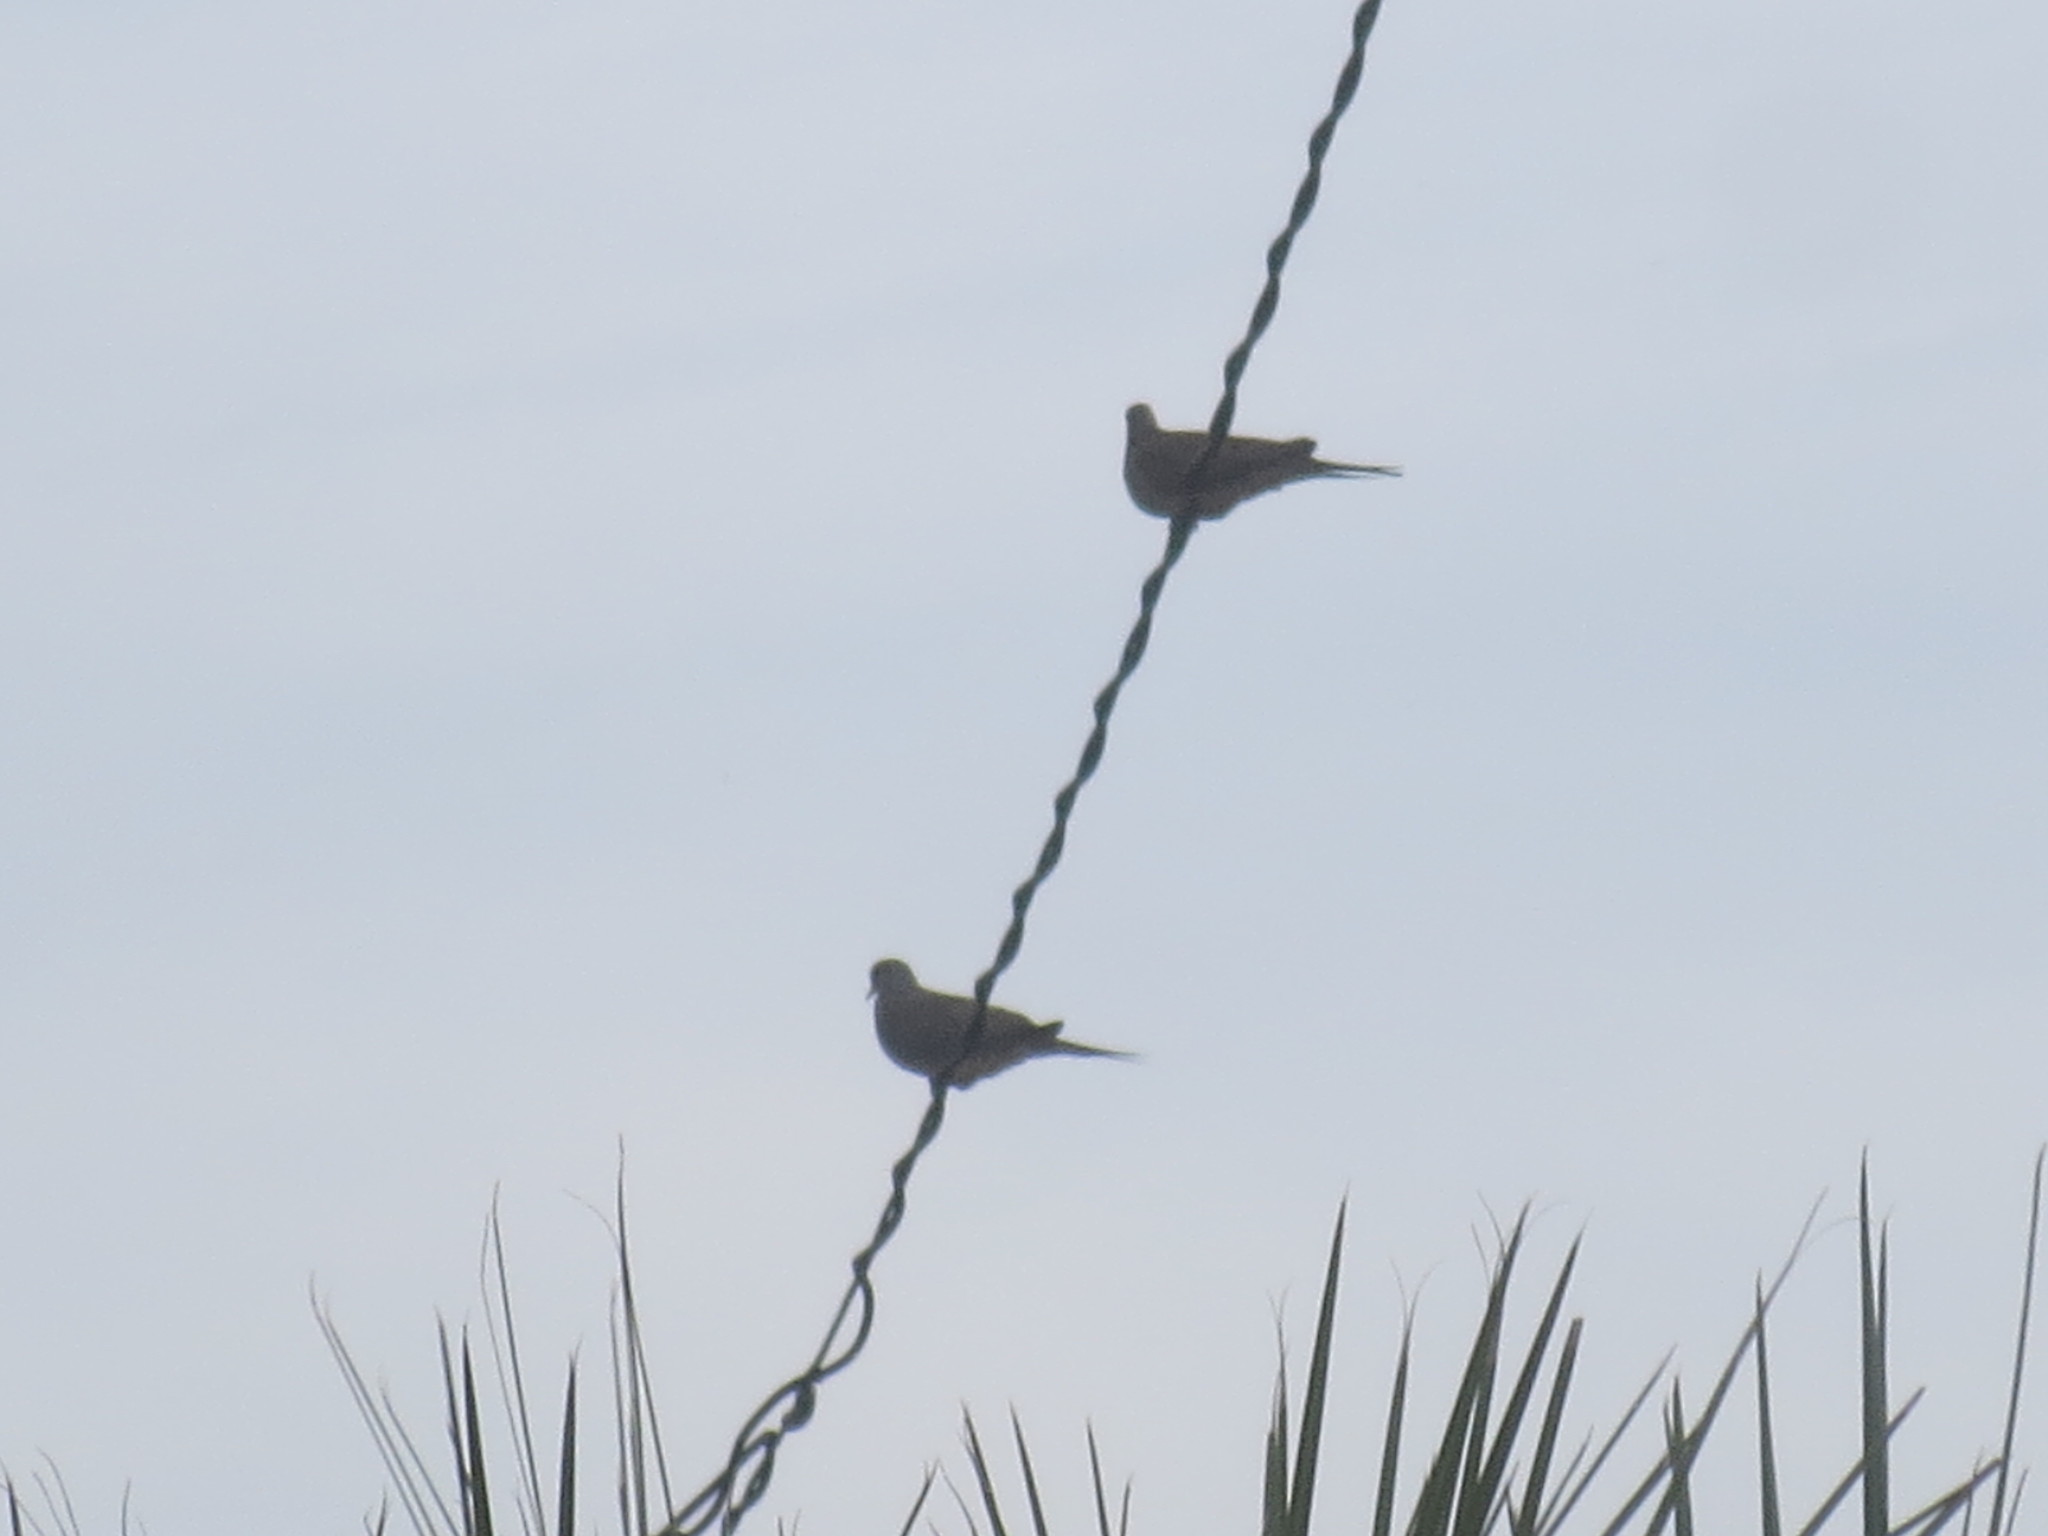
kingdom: Animalia
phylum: Chordata
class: Aves
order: Columbiformes
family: Columbidae
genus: Zenaida
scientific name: Zenaida macroura
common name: Mourning dove
